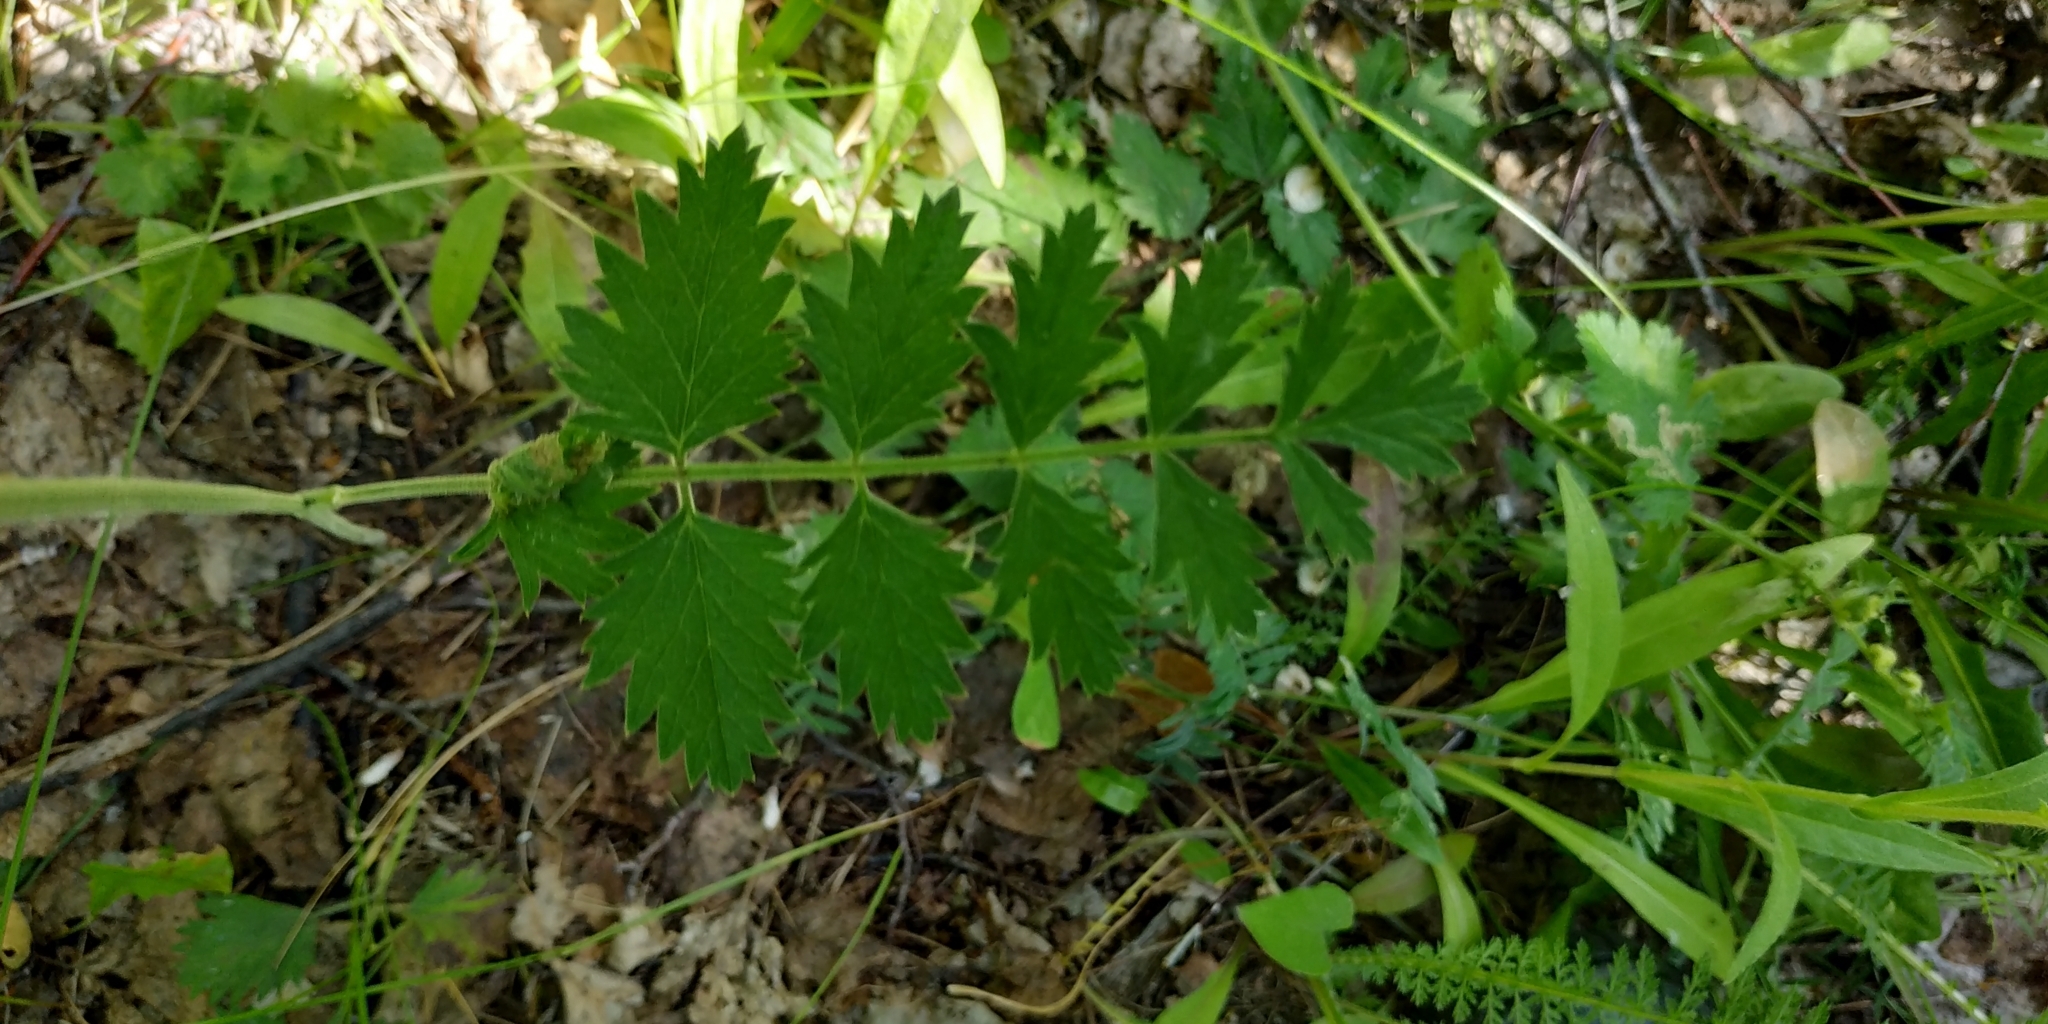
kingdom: Plantae
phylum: Tracheophyta
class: Magnoliopsida
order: Apiales
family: Apiaceae
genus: Pimpinella
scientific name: Pimpinella saxifraga
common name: Burnet-saxifrage
